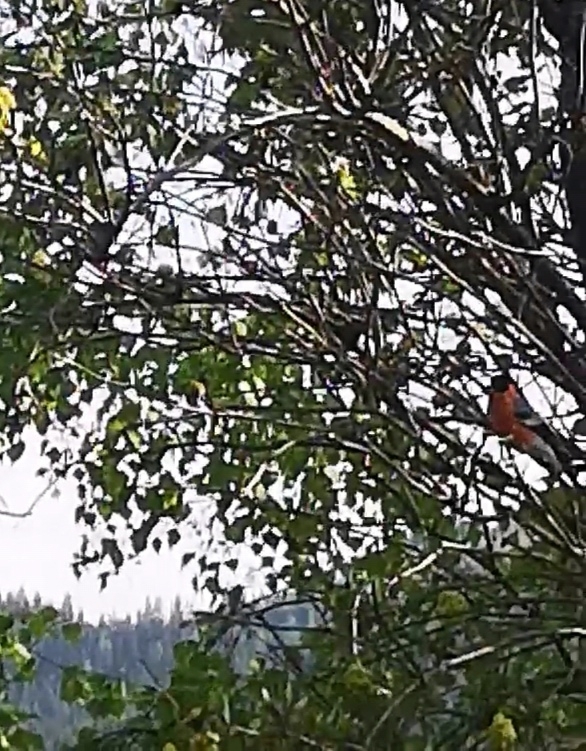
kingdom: Animalia
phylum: Chordata
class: Aves
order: Passeriformes
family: Fringillidae
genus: Pyrrhula
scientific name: Pyrrhula pyrrhula
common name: Eurasian bullfinch
